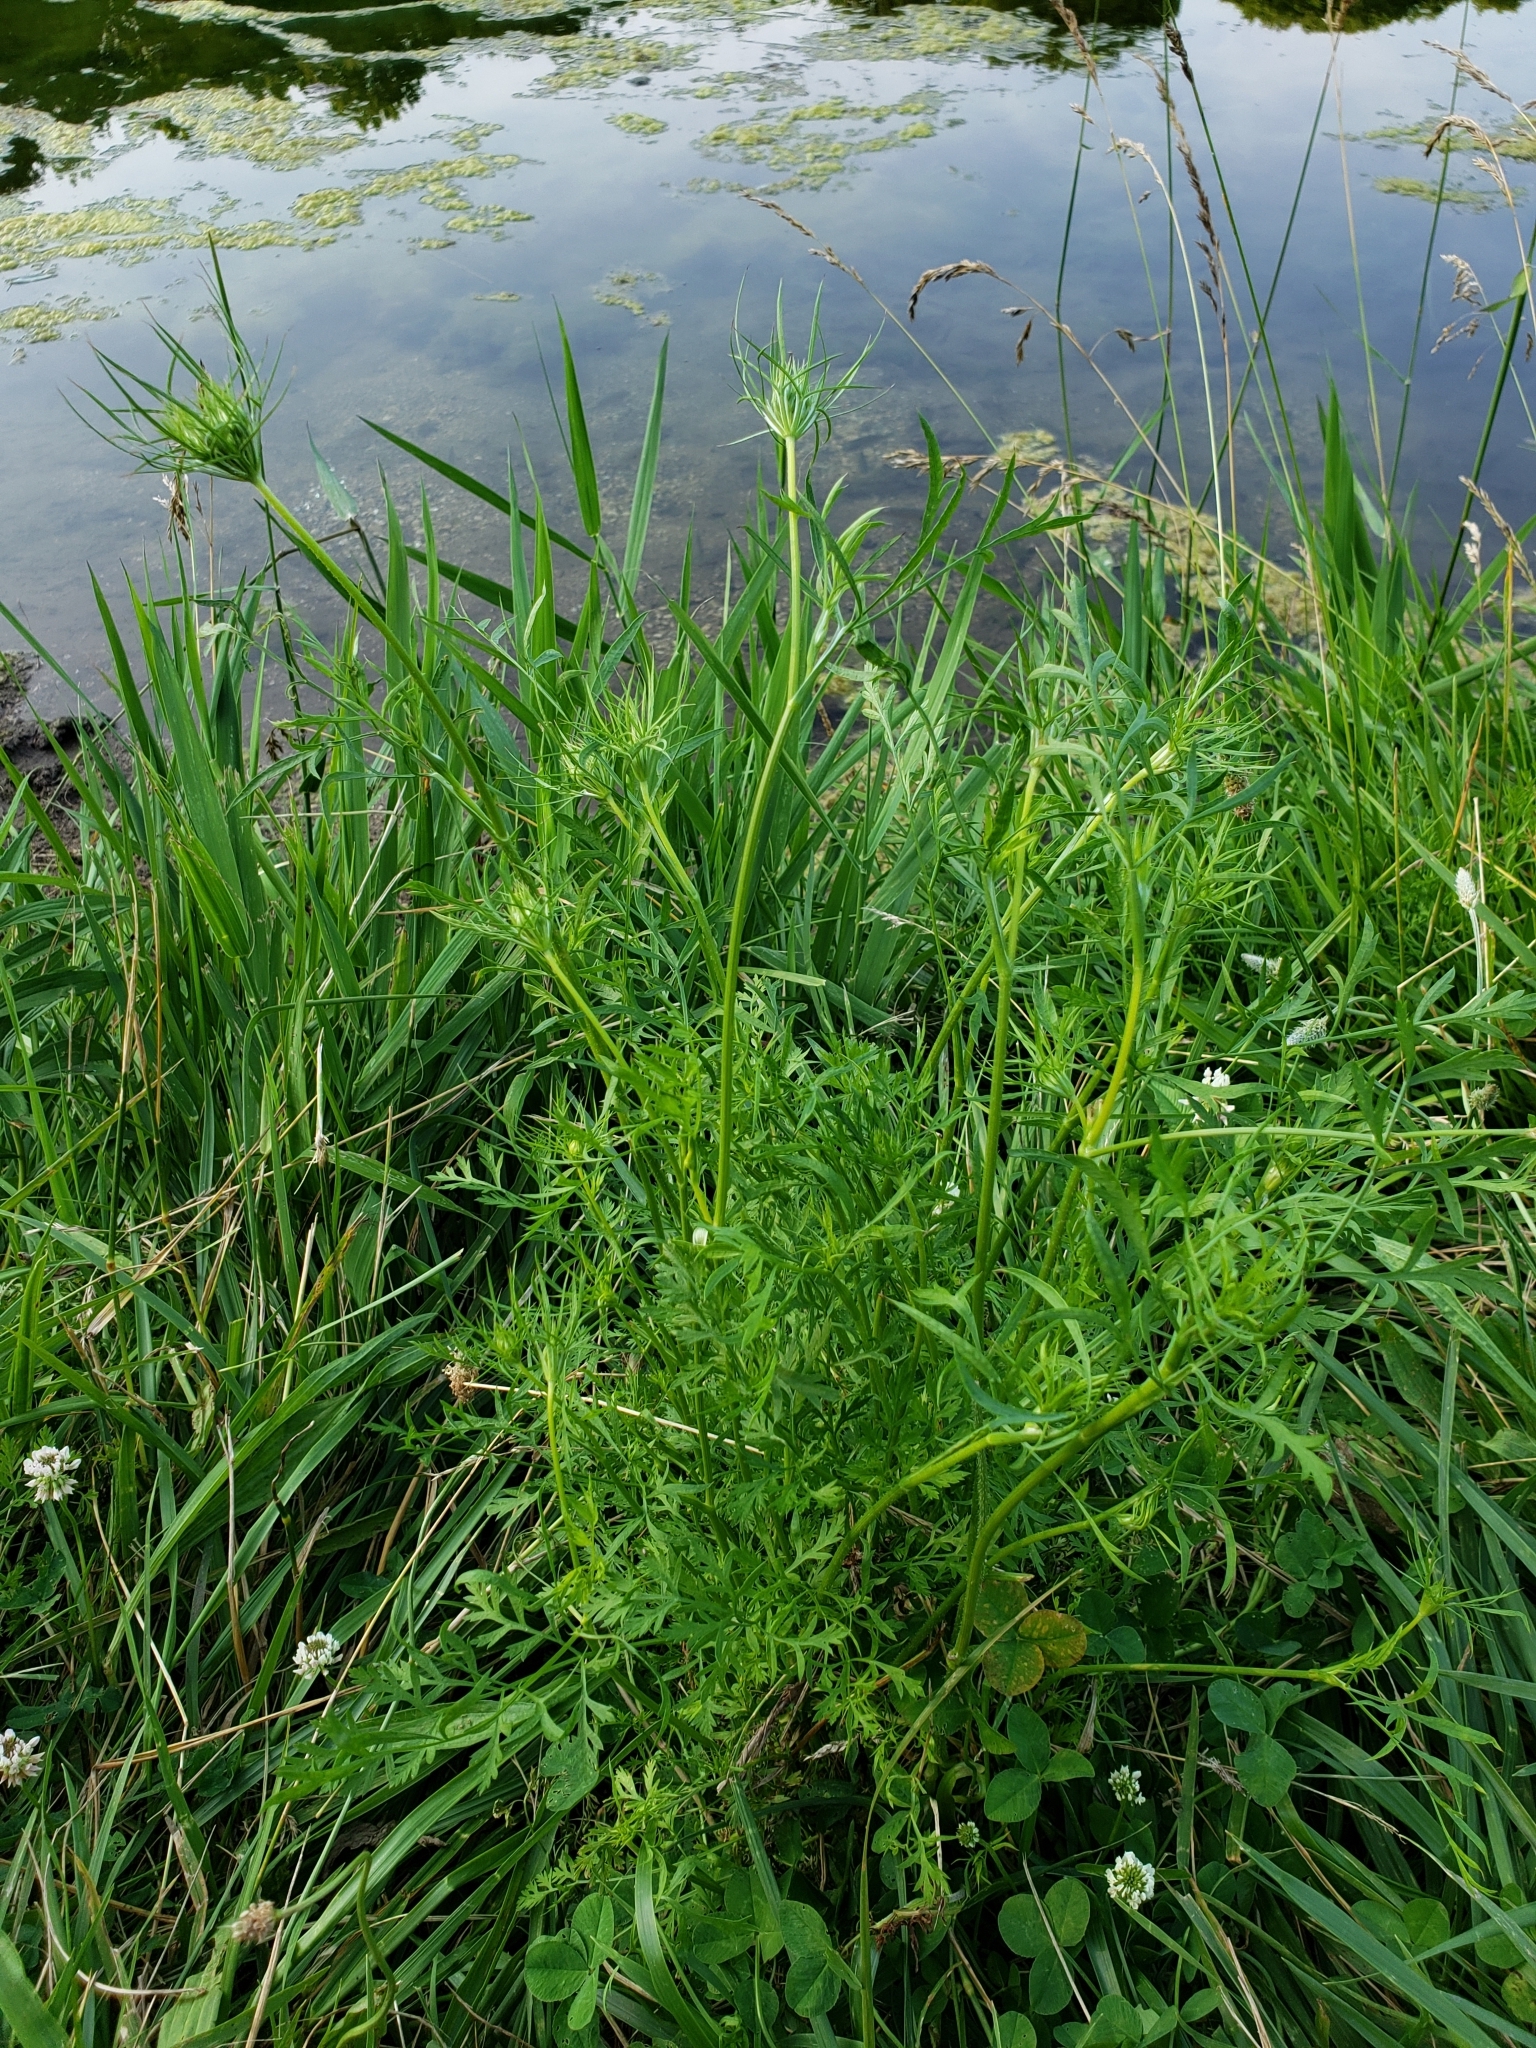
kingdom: Plantae
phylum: Tracheophyta
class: Magnoliopsida
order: Apiales
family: Apiaceae
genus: Daucus
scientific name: Daucus carota
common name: Wild carrot
